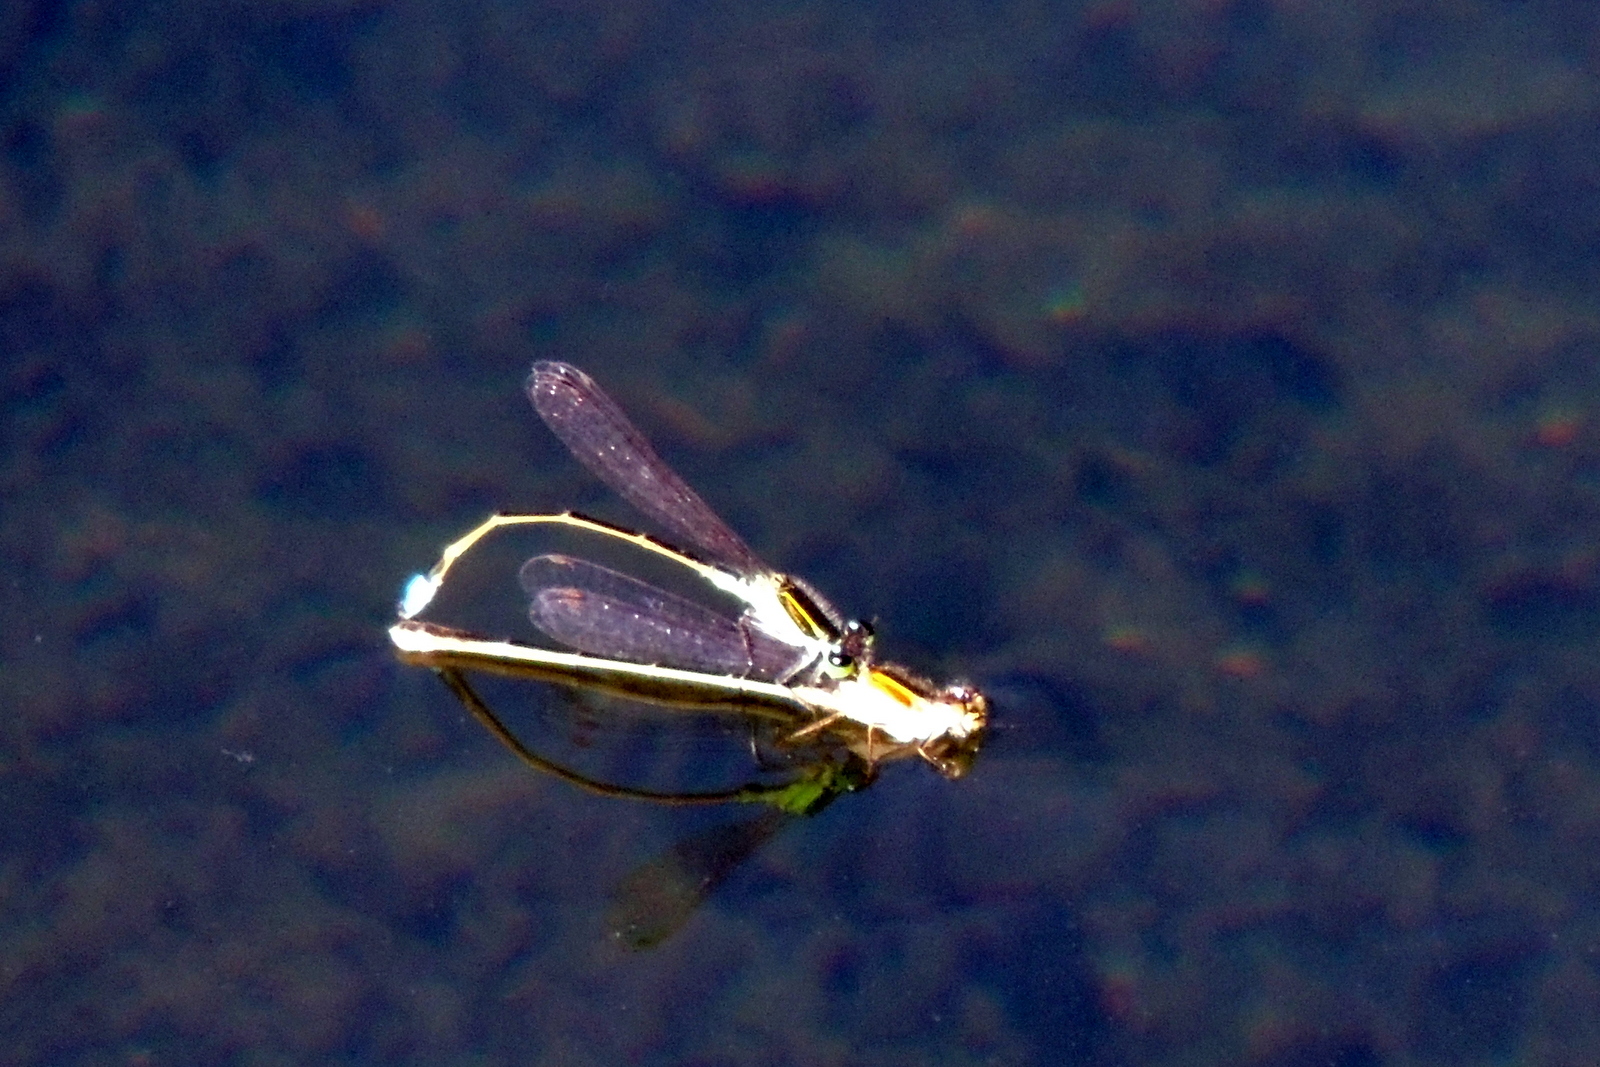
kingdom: Animalia
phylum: Arthropoda
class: Insecta
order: Odonata
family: Coenagrionidae
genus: Ischnura
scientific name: Ischnura ramburii
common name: Rambur's forktail
